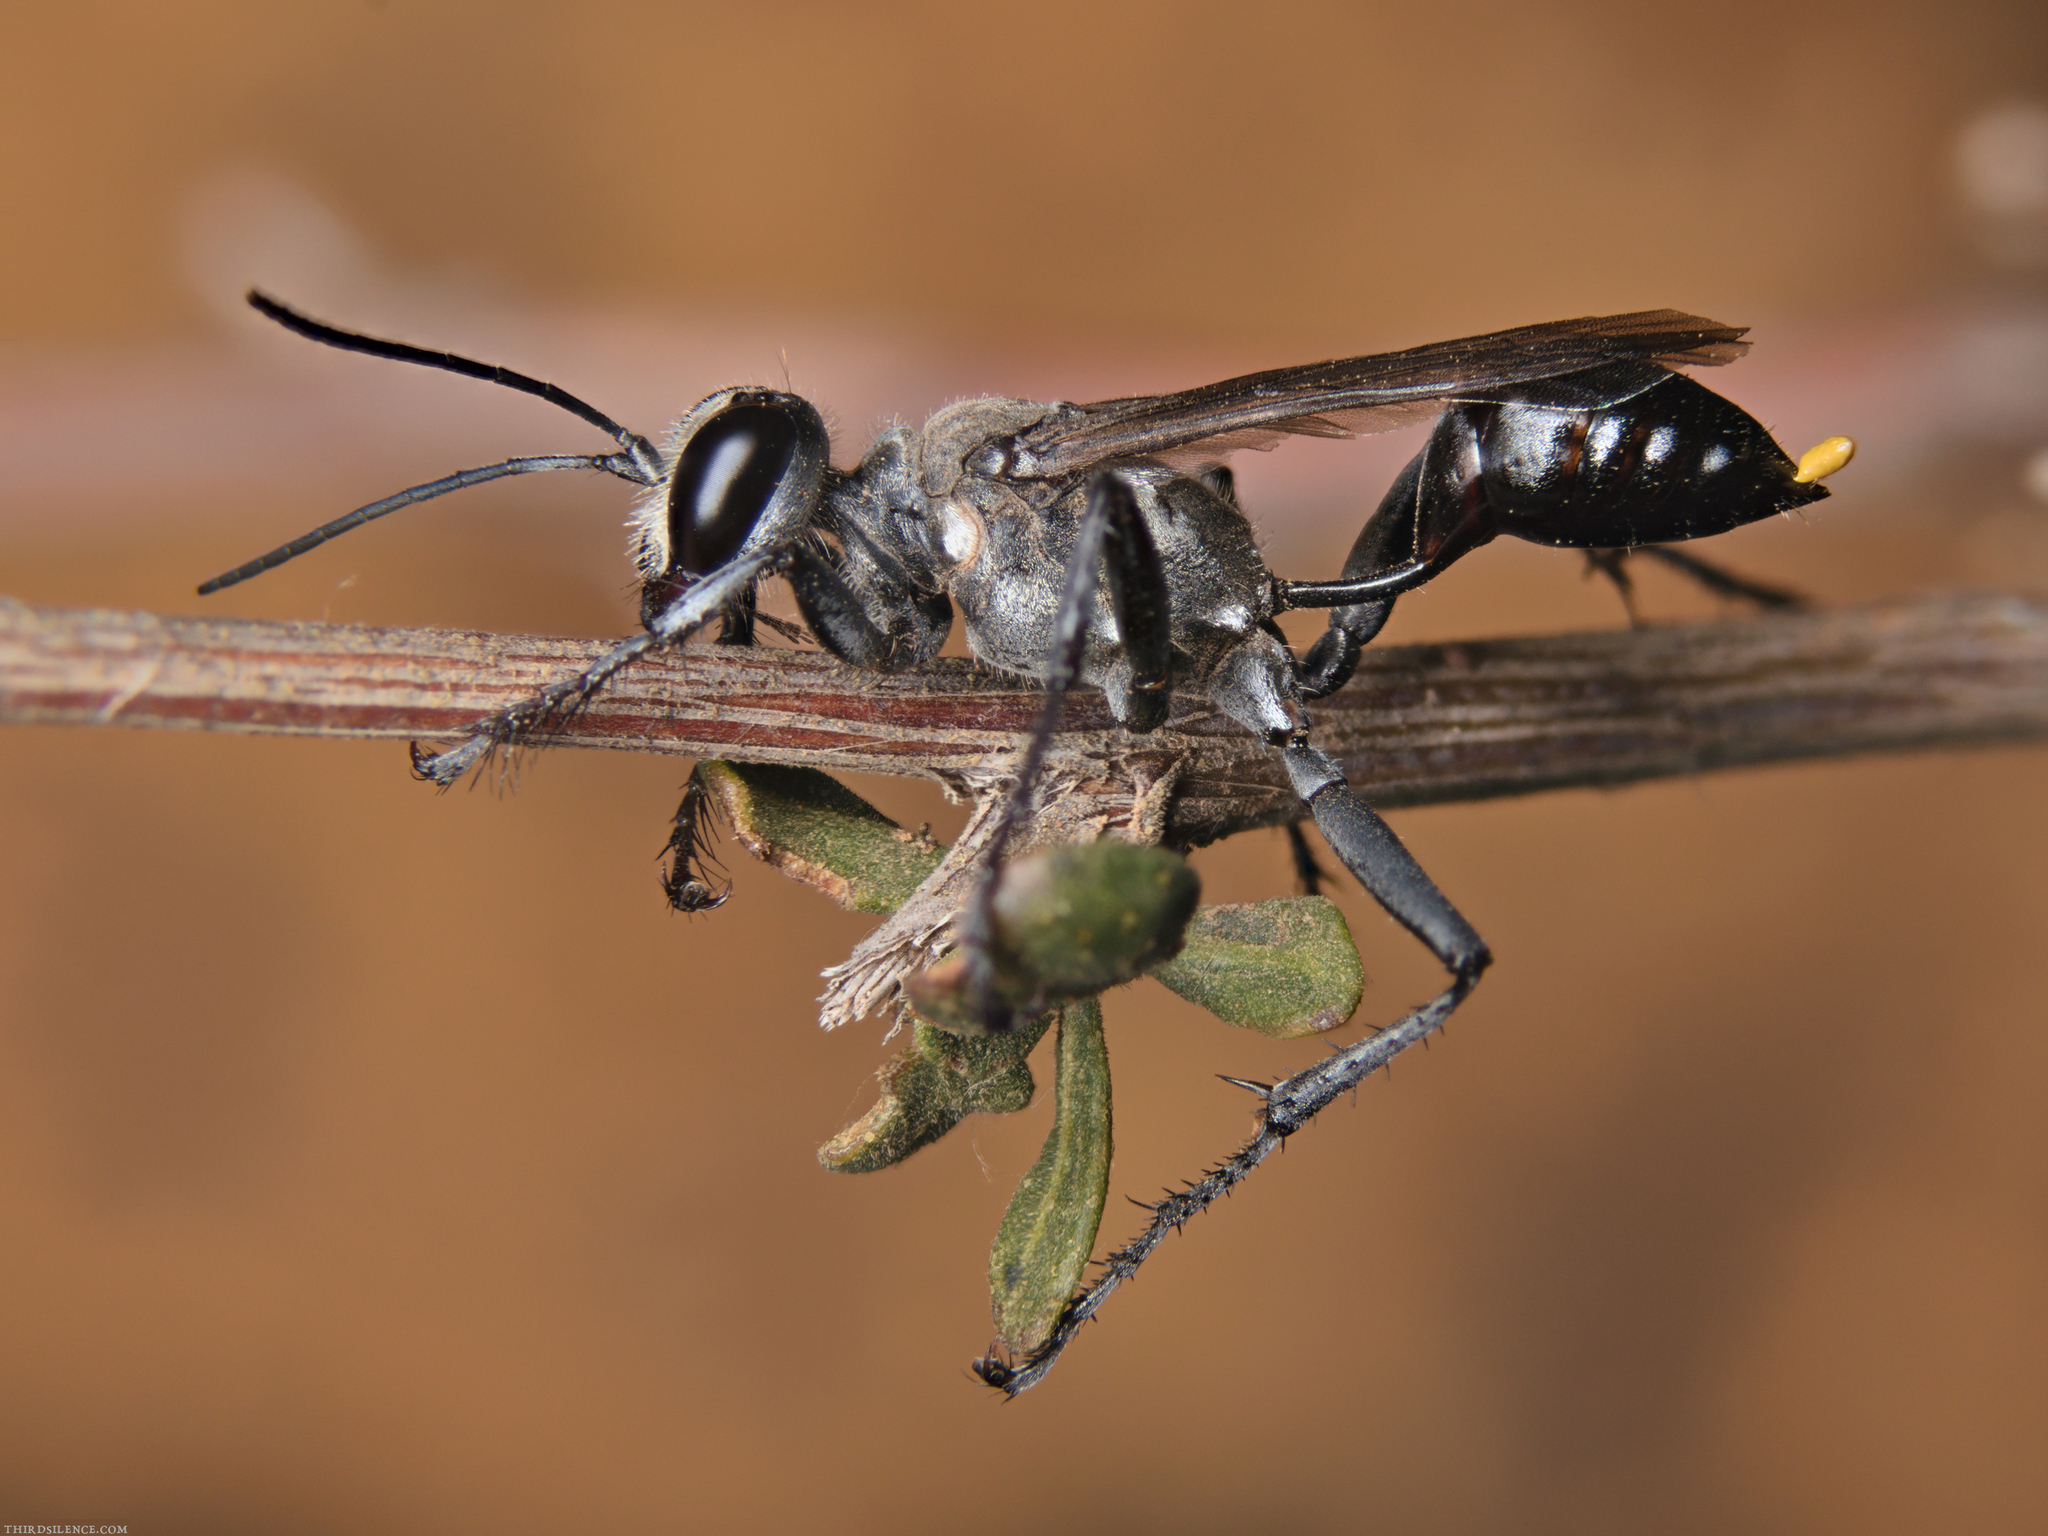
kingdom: Animalia
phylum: Arthropoda
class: Insecta
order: Hymenoptera
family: Sphecidae
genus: Prionyx
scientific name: Prionyx globosus
